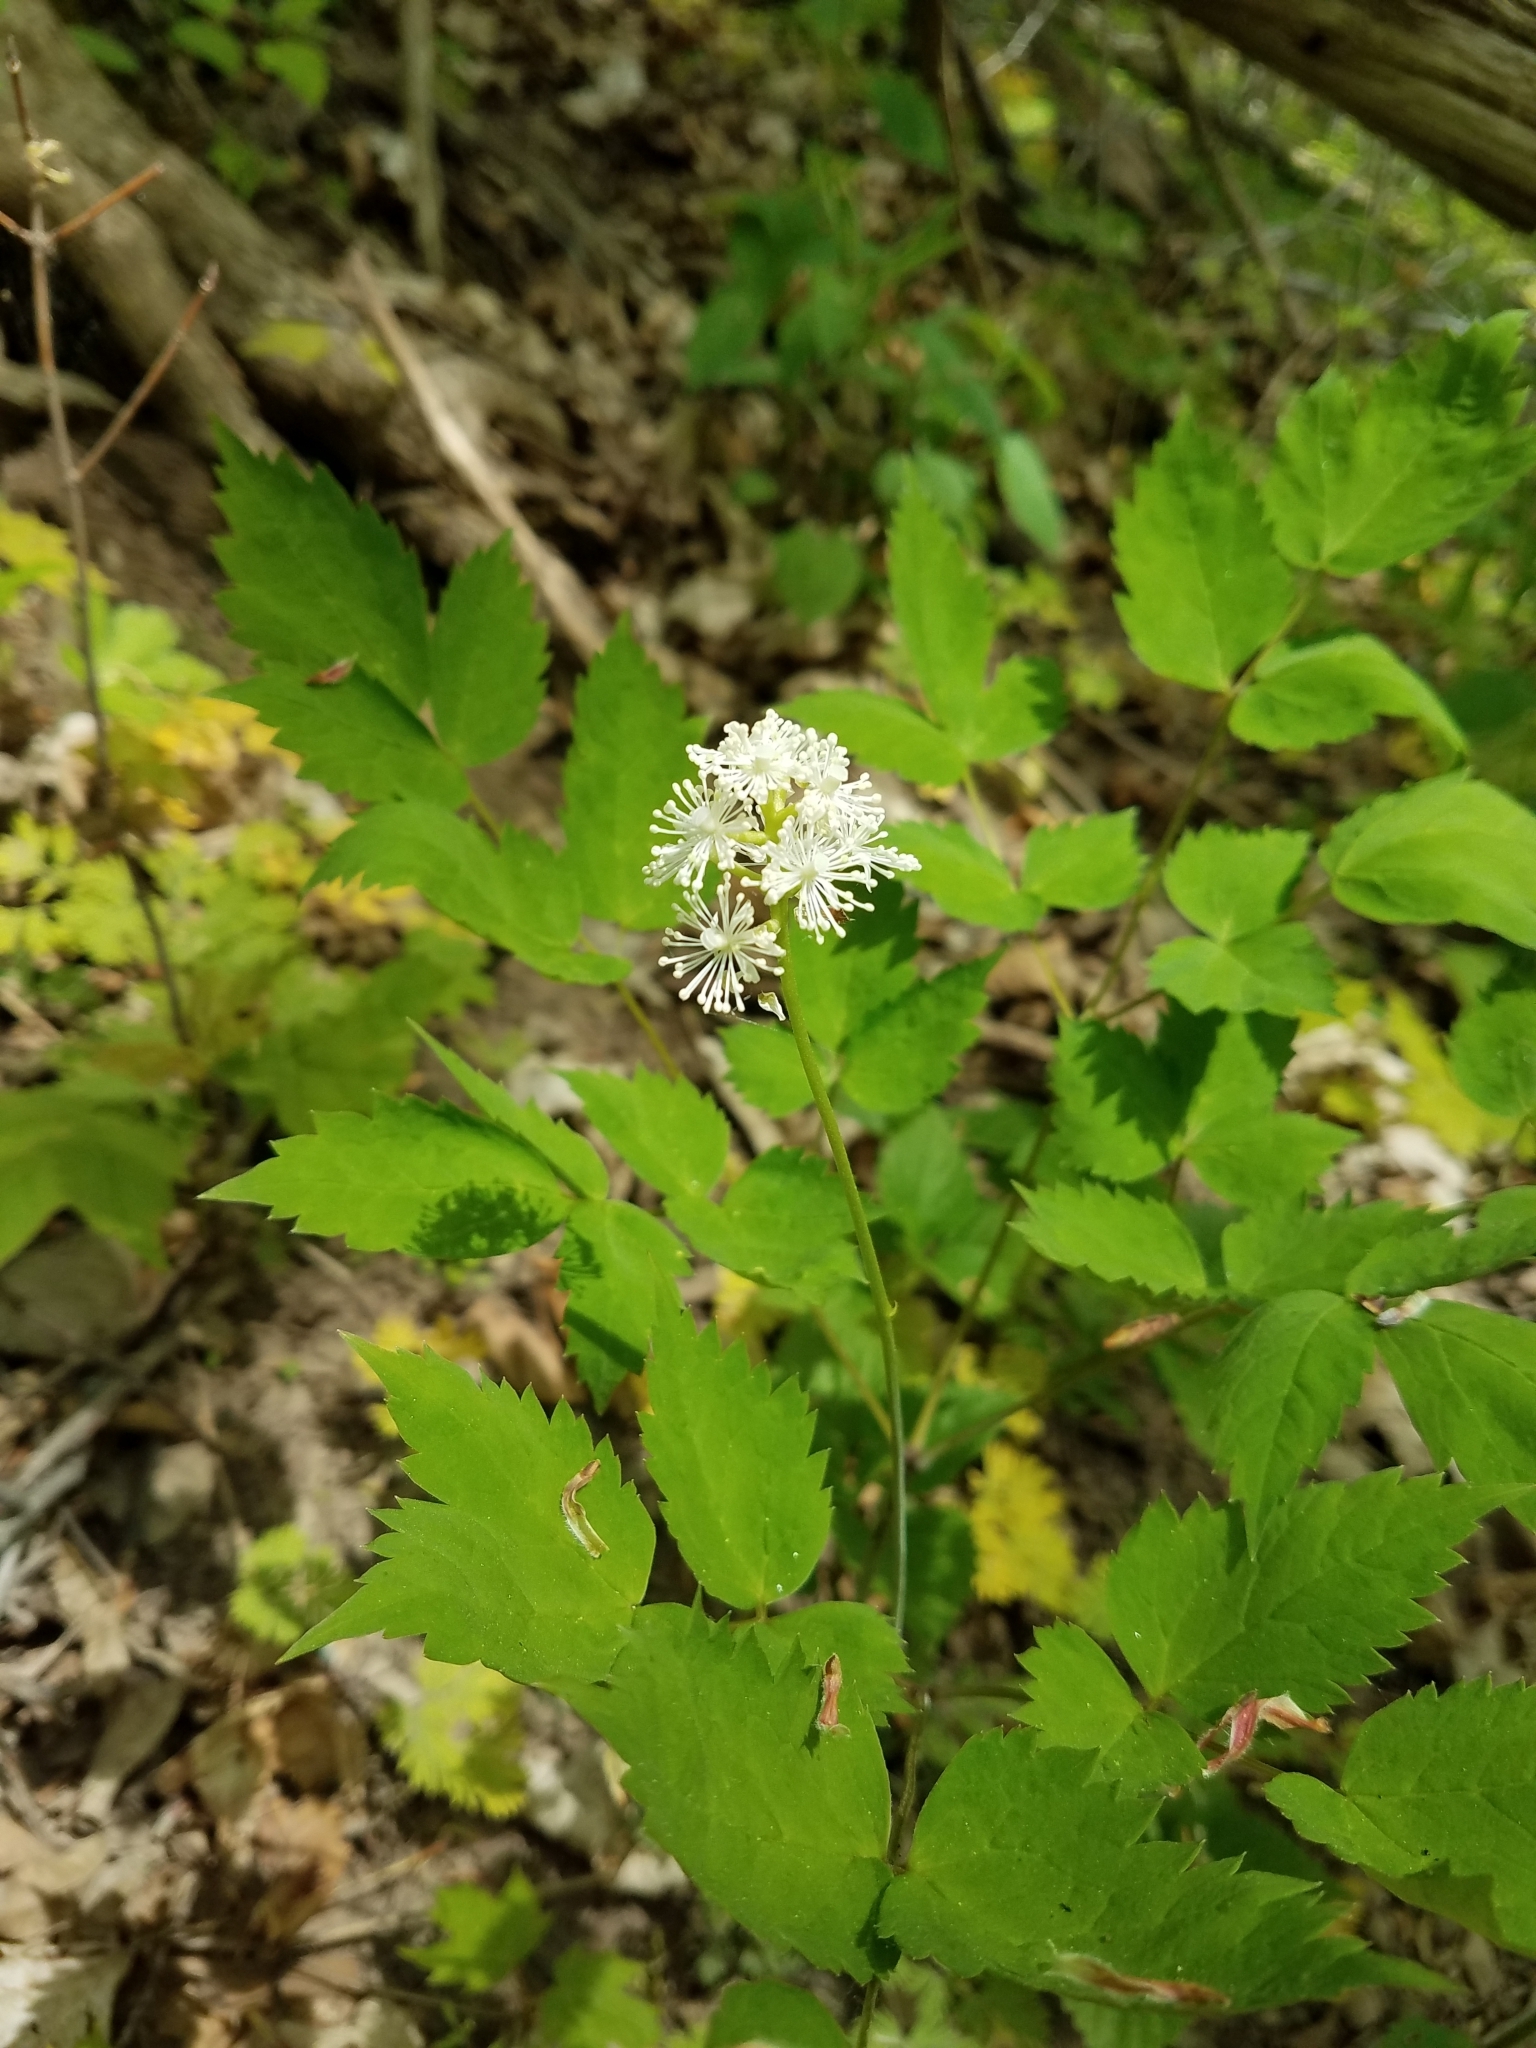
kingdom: Plantae
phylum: Tracheophyta
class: Magnoliopsida
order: Ranunculales
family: Ranunculaceae
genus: Actaea
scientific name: Actaea pachypoda
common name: Doll's-eyes
